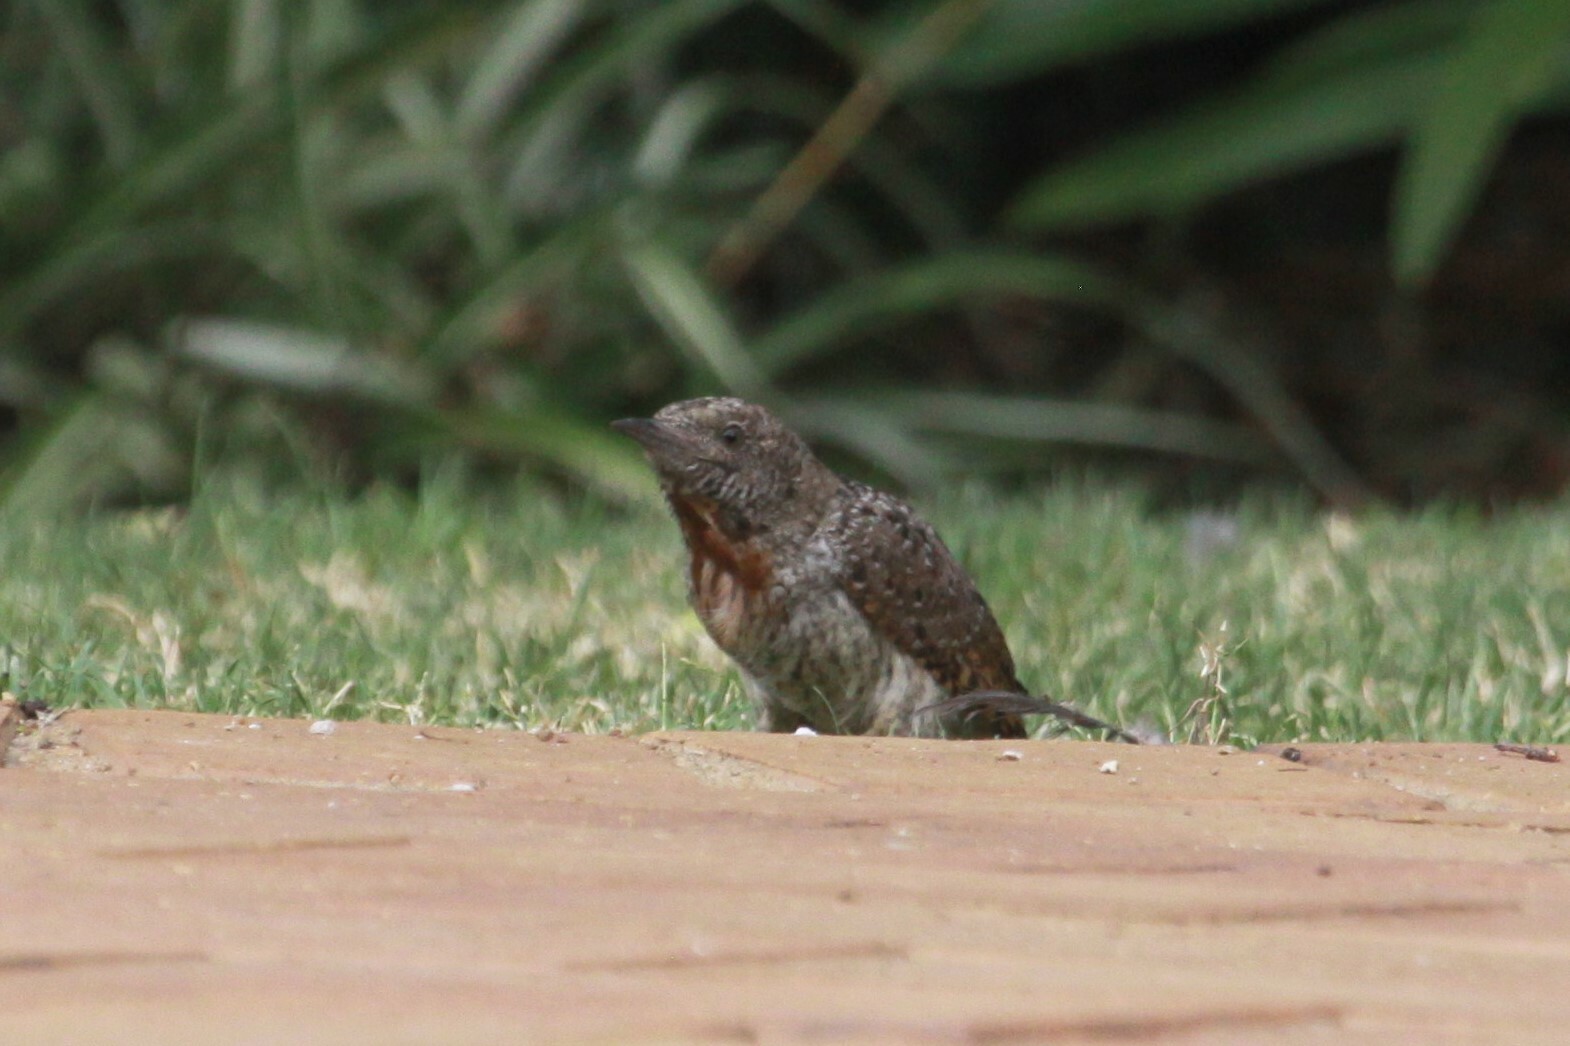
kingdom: Animalia
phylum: Chordata
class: Aves
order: Piciformes
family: Picidae
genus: Jynx
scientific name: Jynx ruficollis
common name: Red-throated wryneck
